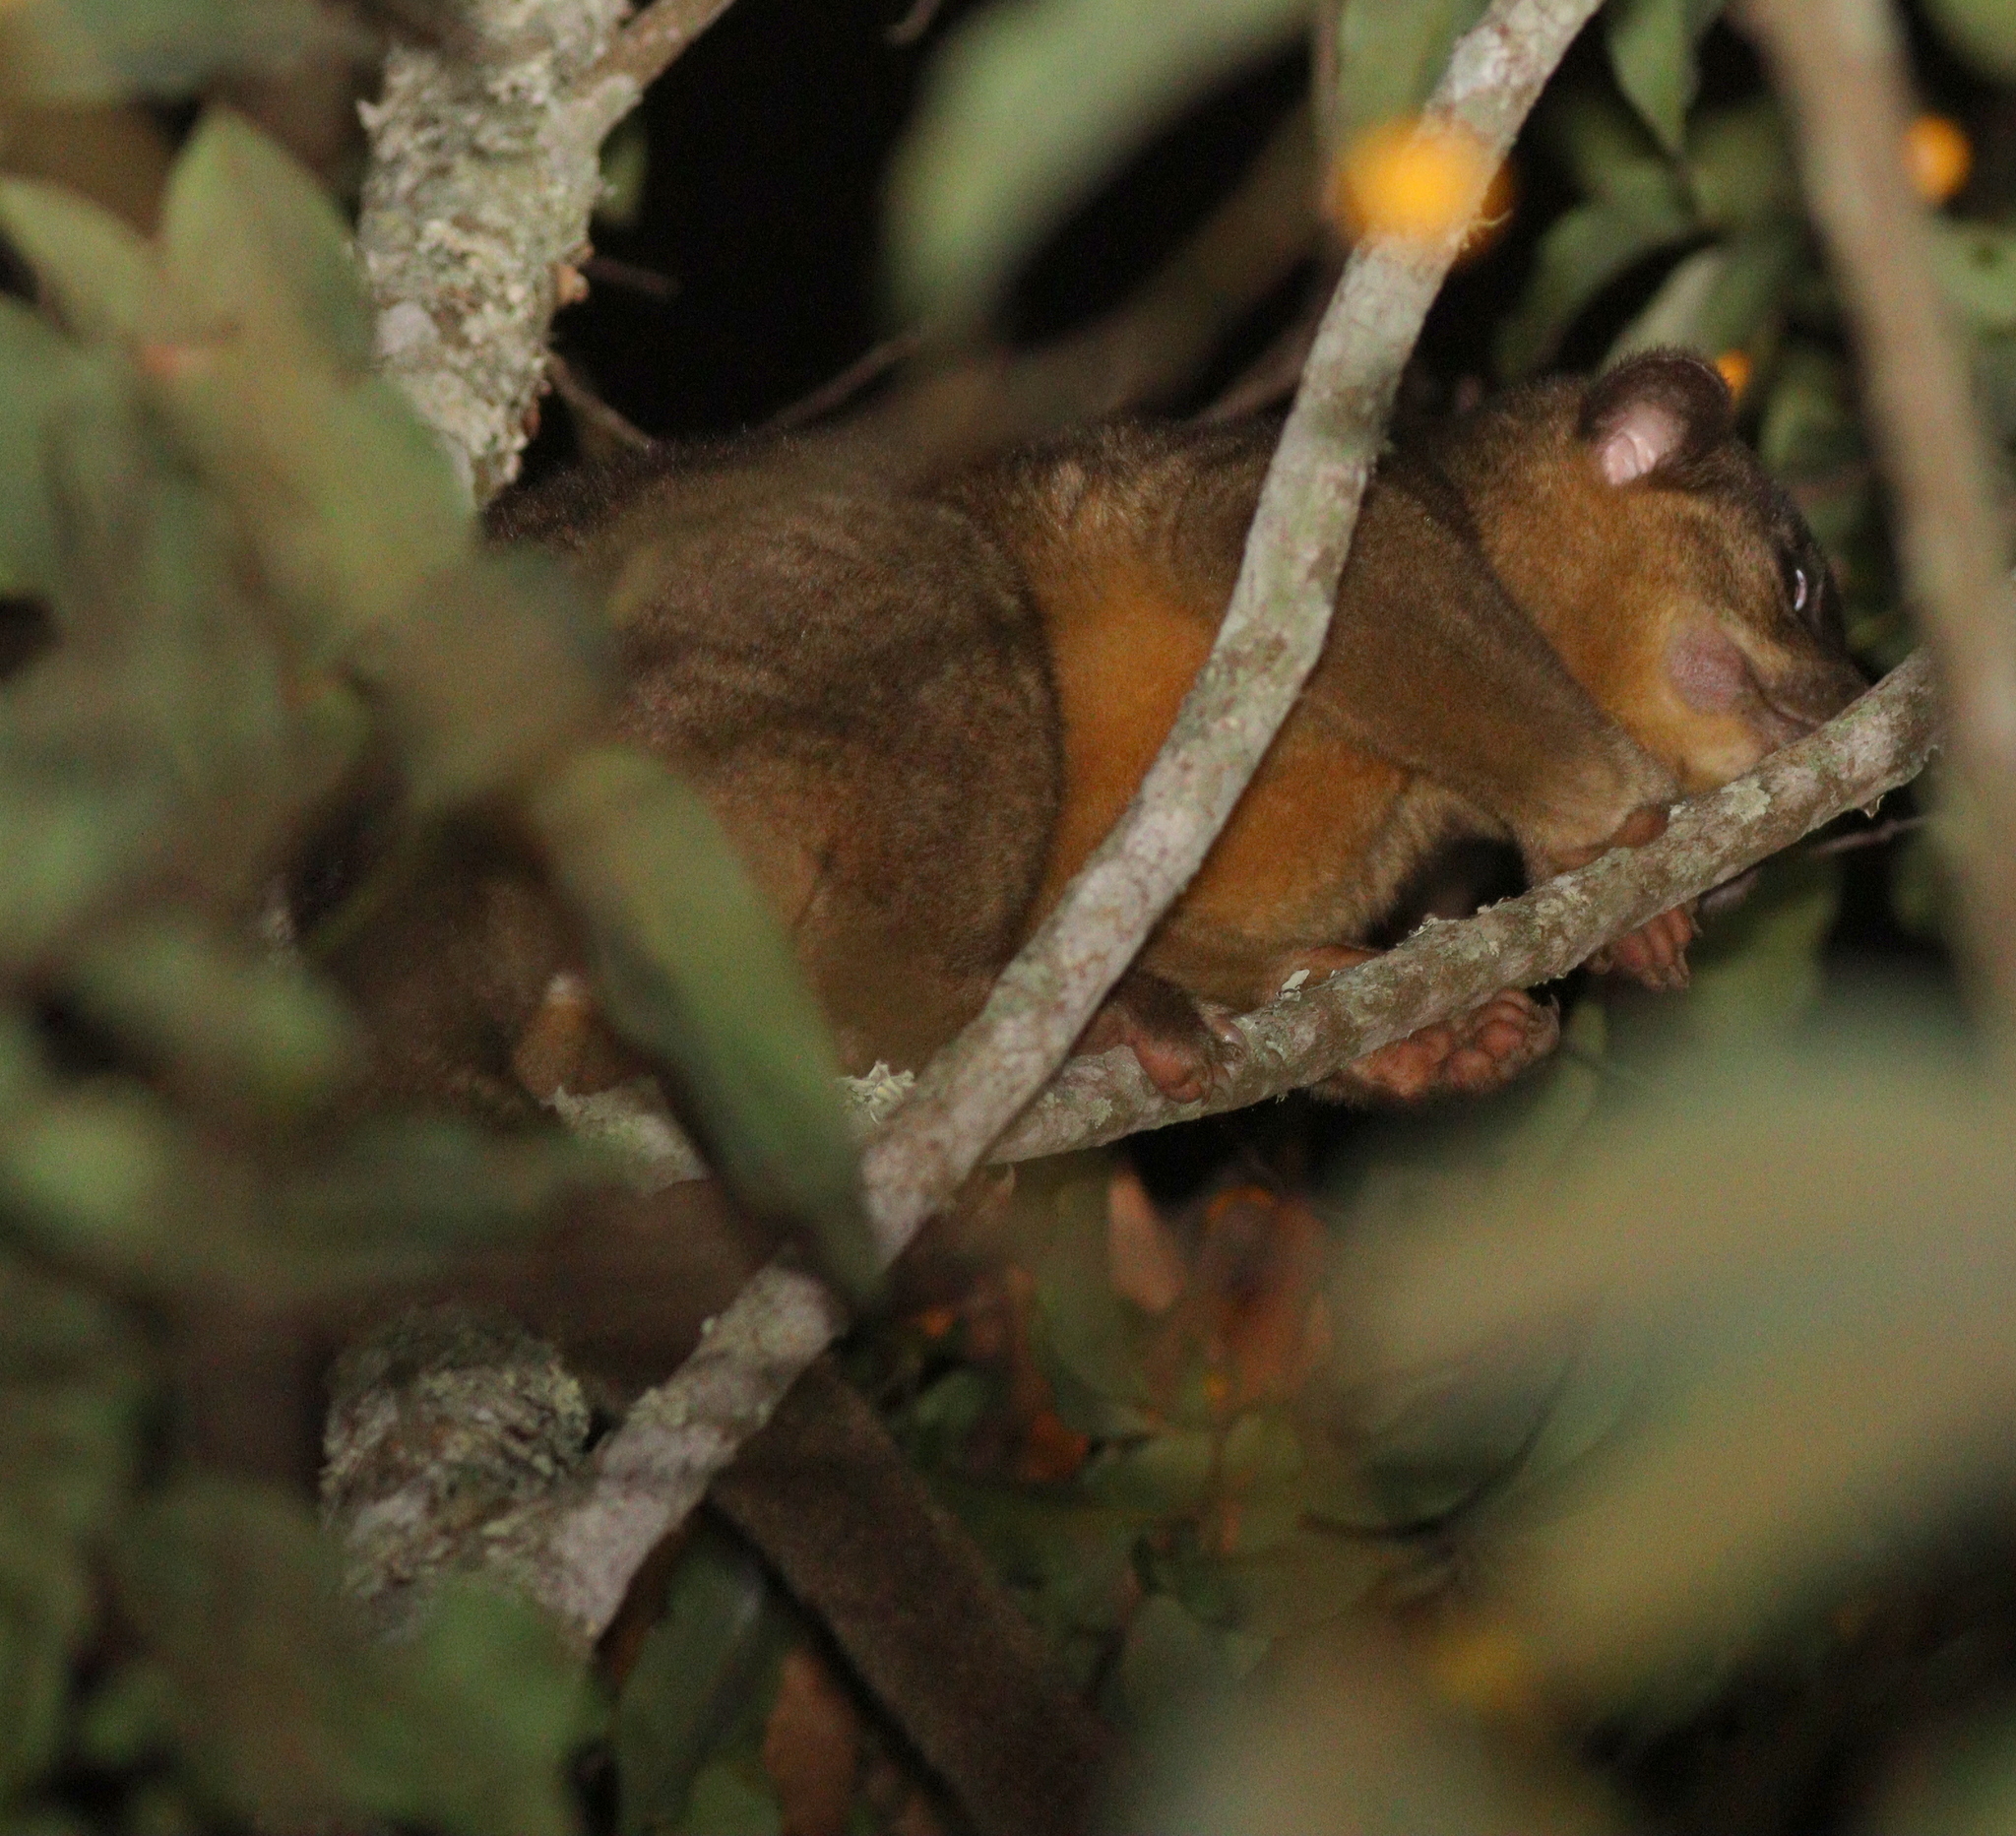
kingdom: Animalia
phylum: Chordata
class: Mammalia
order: Carnivora
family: Procyonidae
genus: Potos
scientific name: Potos flavus
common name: Kinkajou
